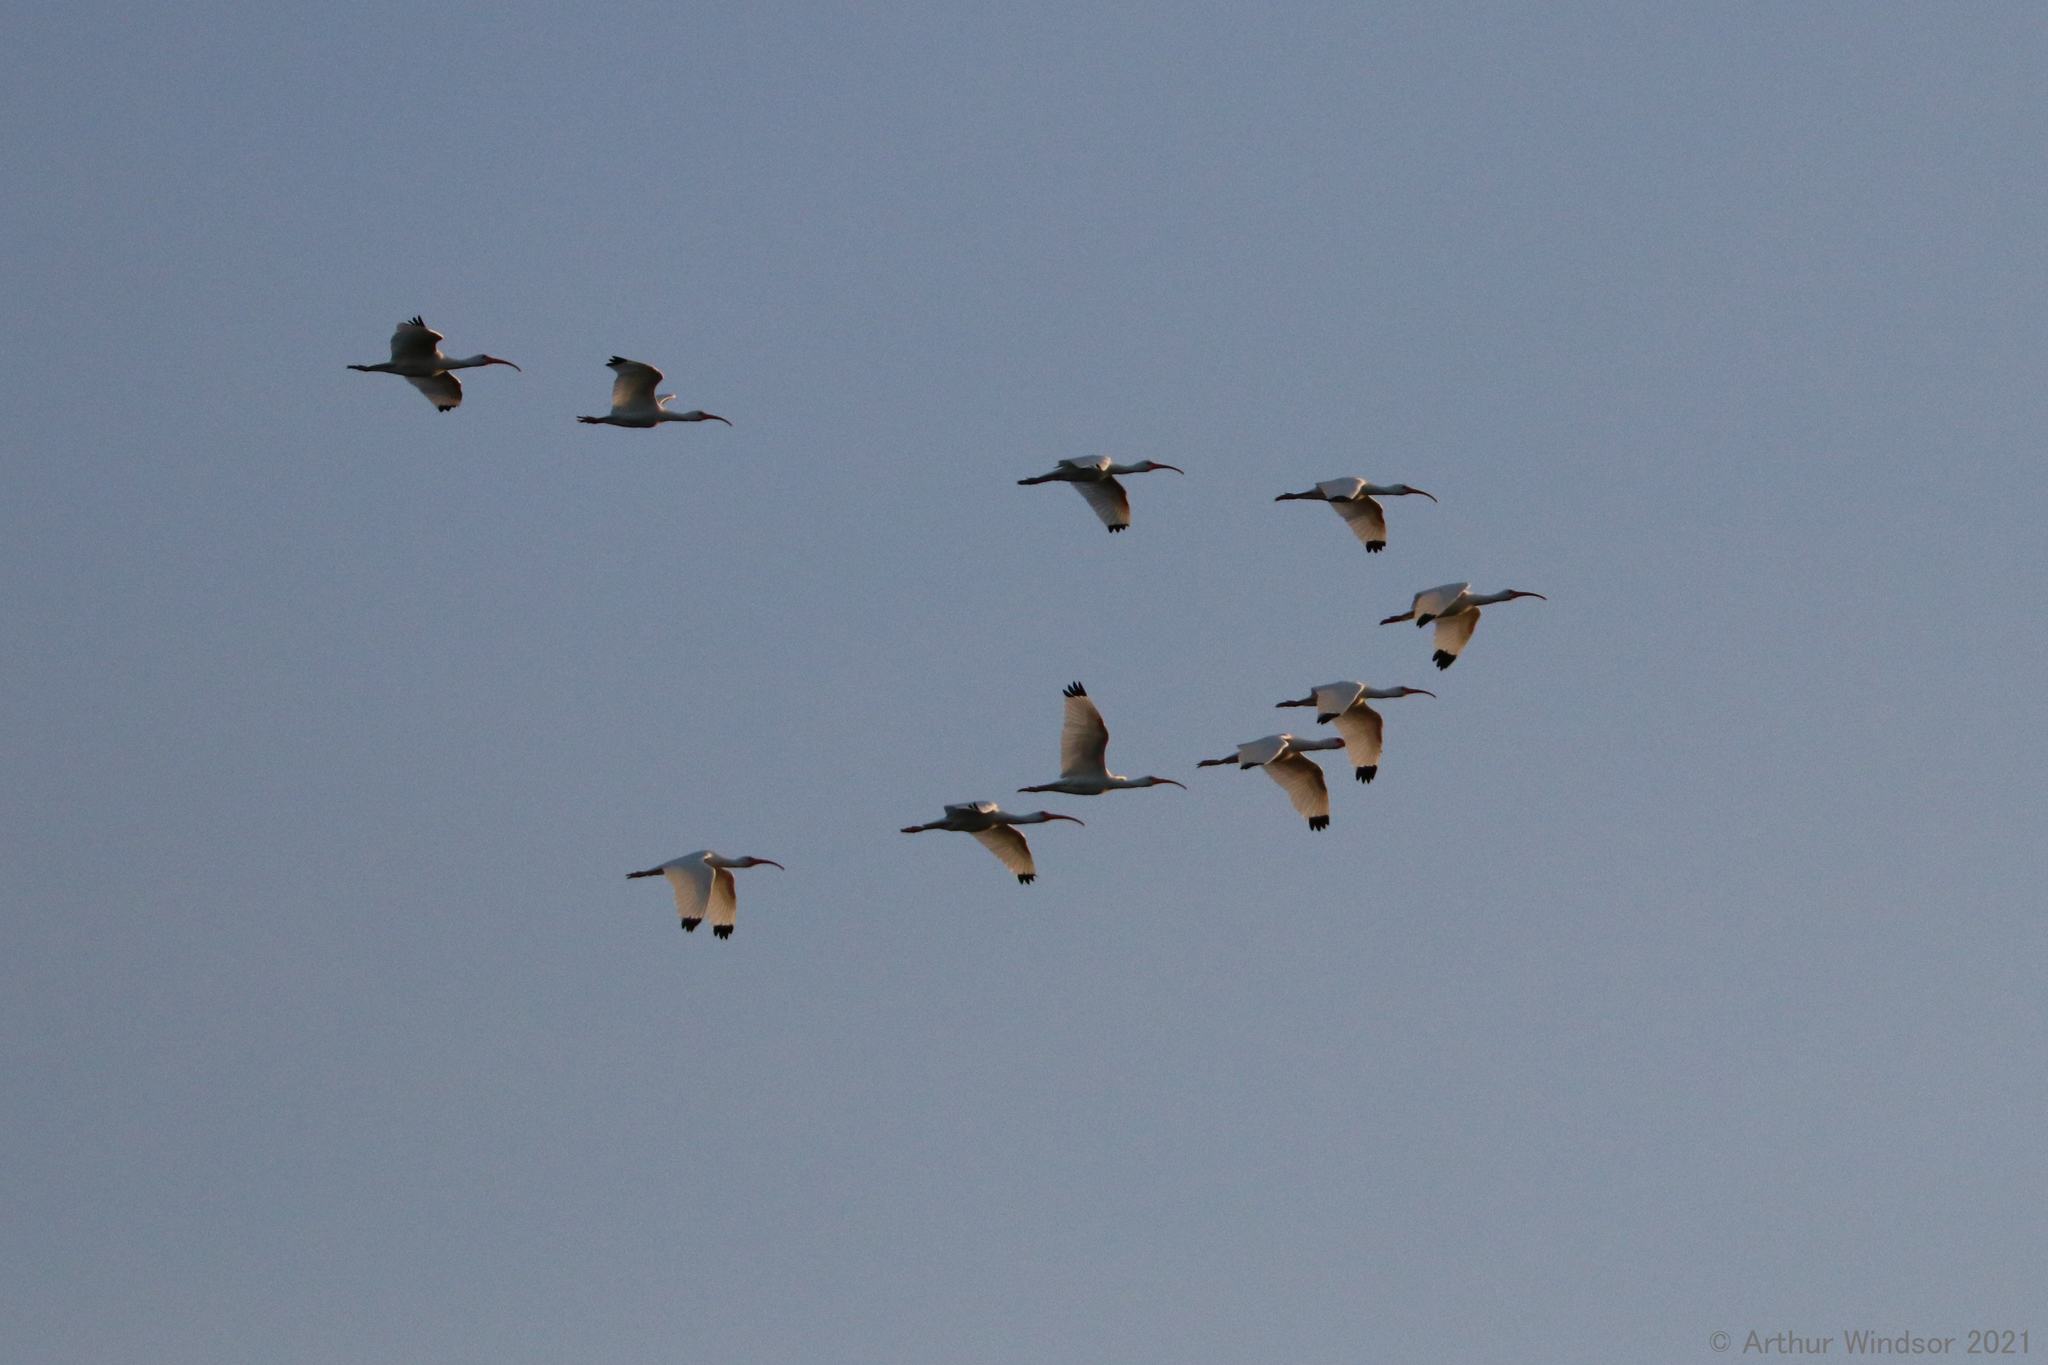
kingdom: Animalia
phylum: Chordata
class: Aves
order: Pelecaniformes
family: Threskiornithidae
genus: Eudocimus
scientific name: Eudocimus albus
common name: White ibis
